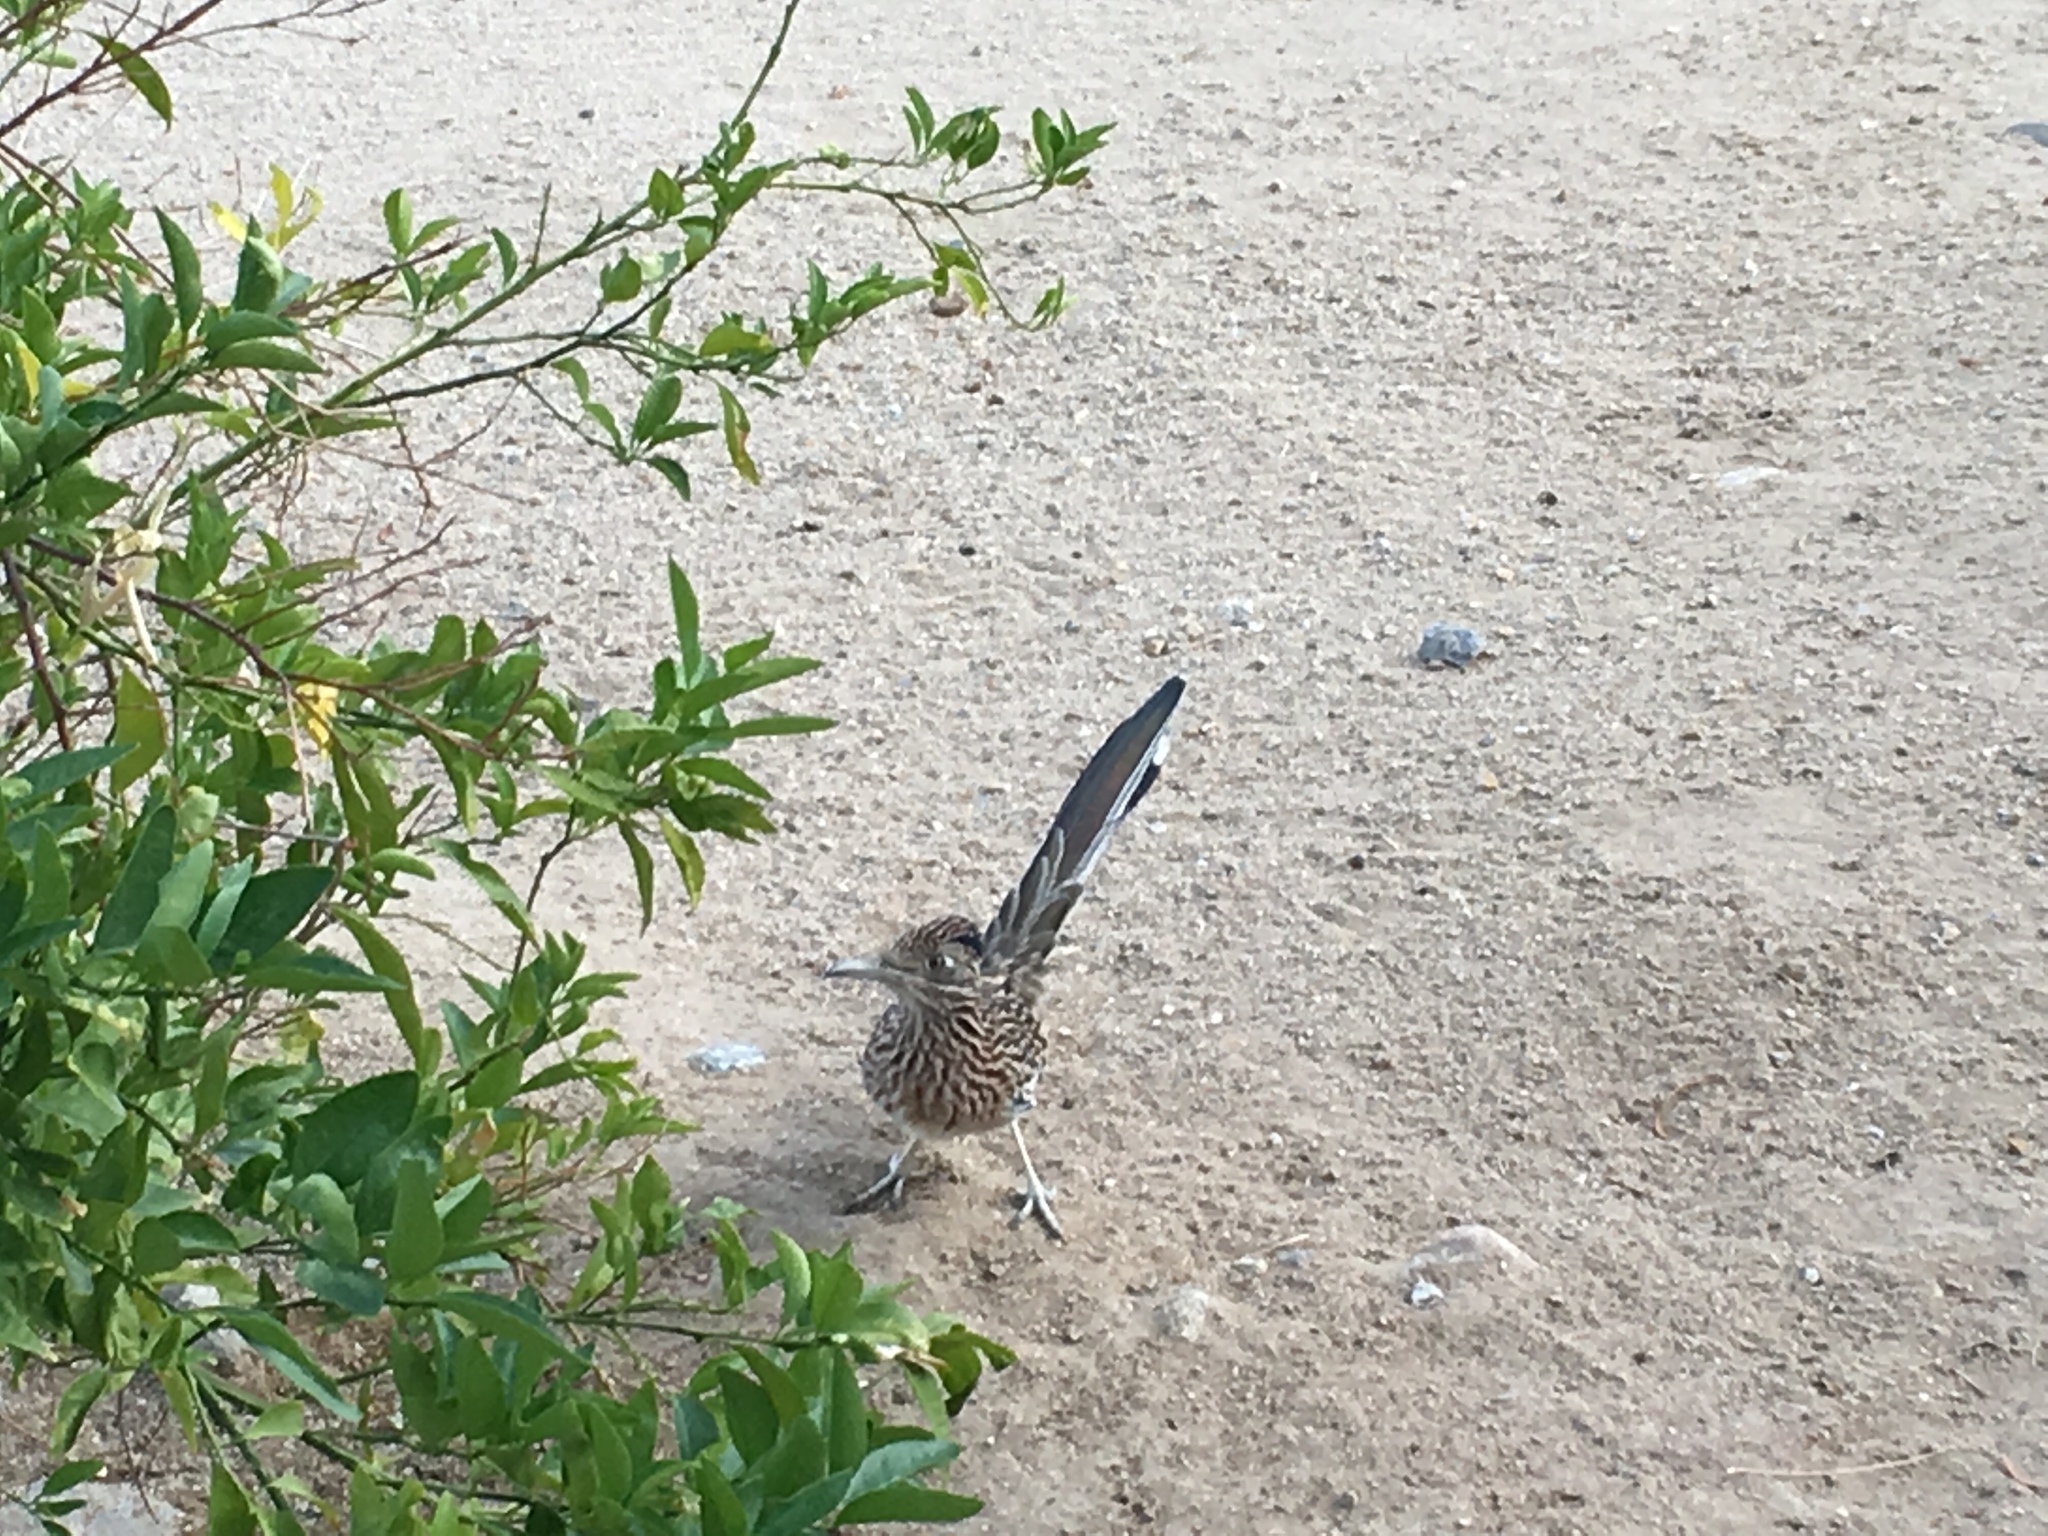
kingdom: Animalia
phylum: Chordata
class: Aves
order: Cuculiformes
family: Cuculidae
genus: Geococcyx
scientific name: Geococcyx californianus
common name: Greater roadrunner
